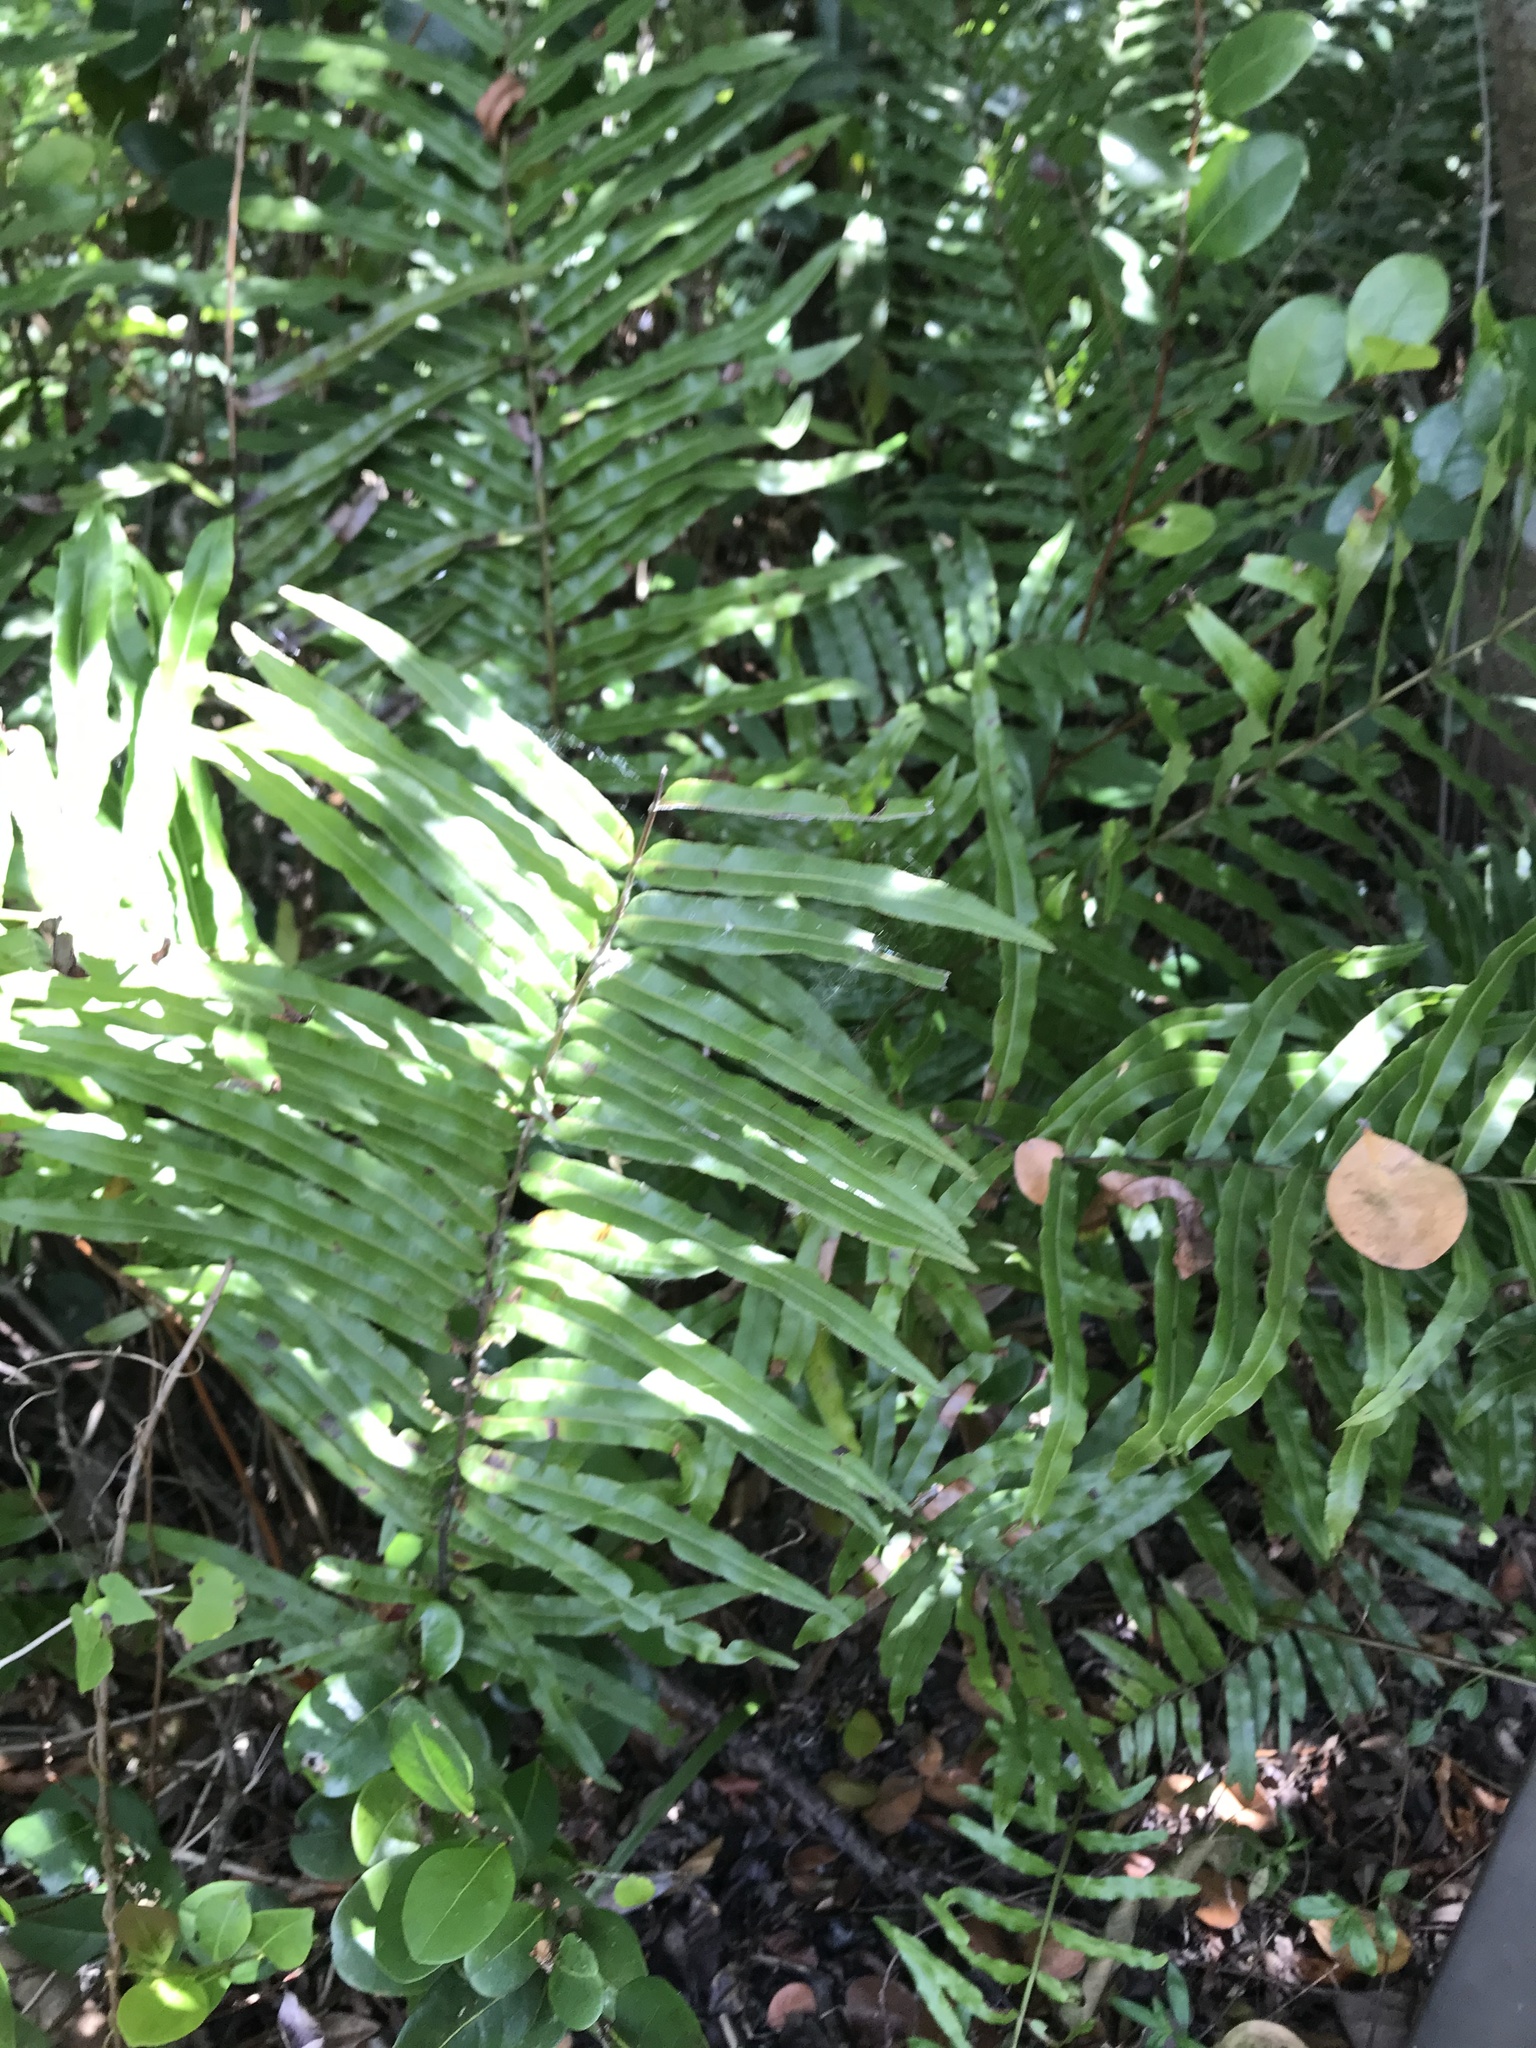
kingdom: Plantae
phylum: Tracheophyta
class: Polypodiopsida
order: Polypodiales
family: Blechnaceae
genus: Telmatoblechnum
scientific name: Telmatoblechnum serrulatum
